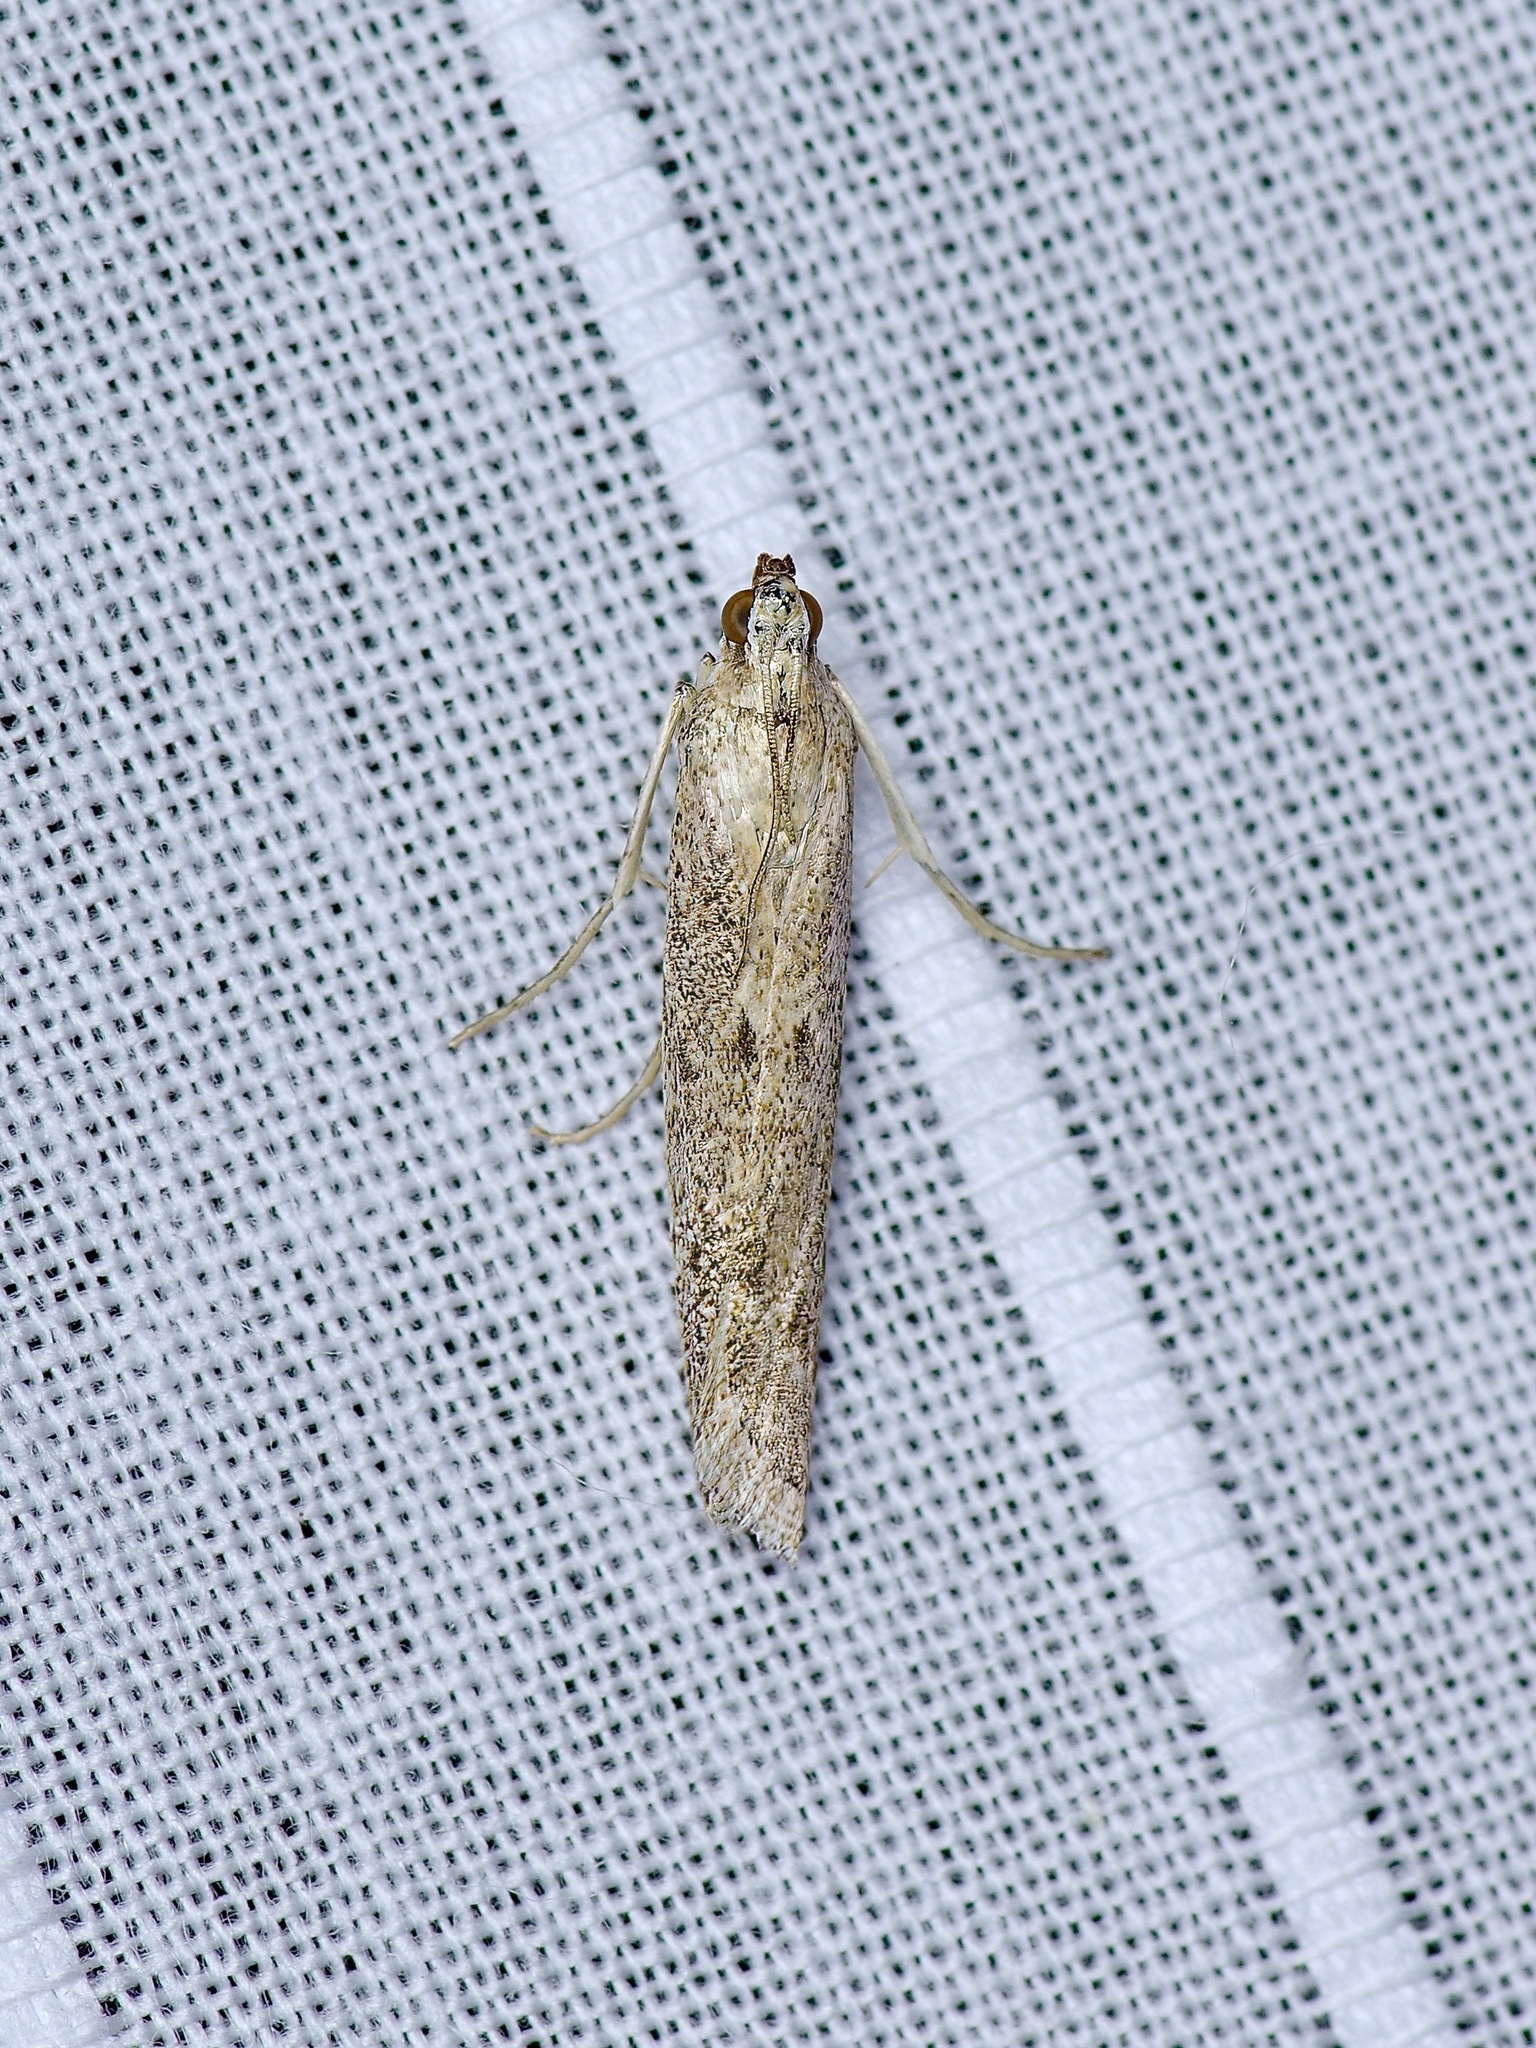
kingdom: Animalia
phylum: Arthropoda
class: Insecta
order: Lepidoptera
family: Pyralidae
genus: Homoeosoma
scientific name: Homoeosoma electella
